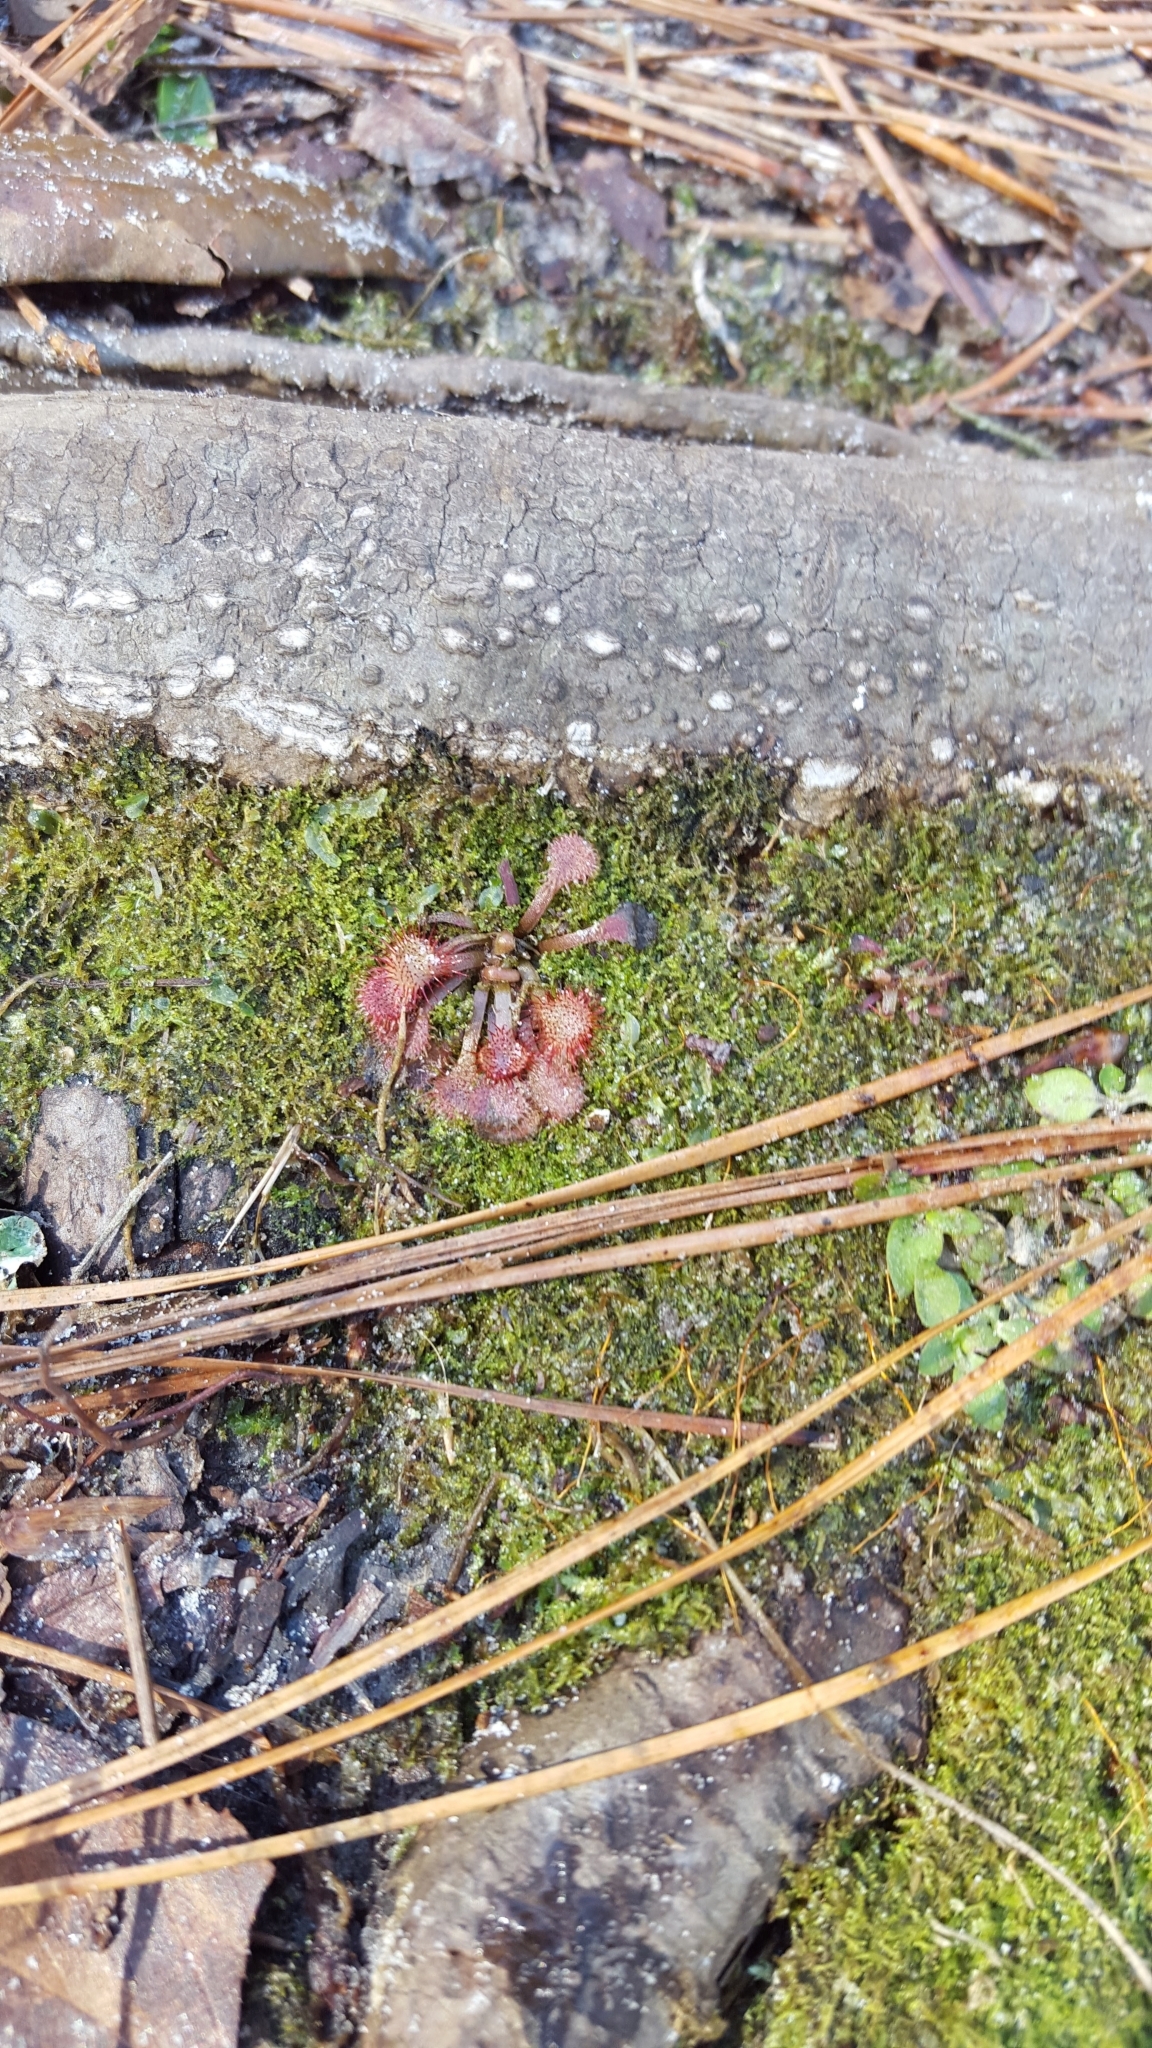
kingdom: Plantae
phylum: Tracheophyta
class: Magnoliopsida
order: Caryophyllales
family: Droseraceae
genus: Drosera
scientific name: Drosera capillaris
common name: Pink sundew
